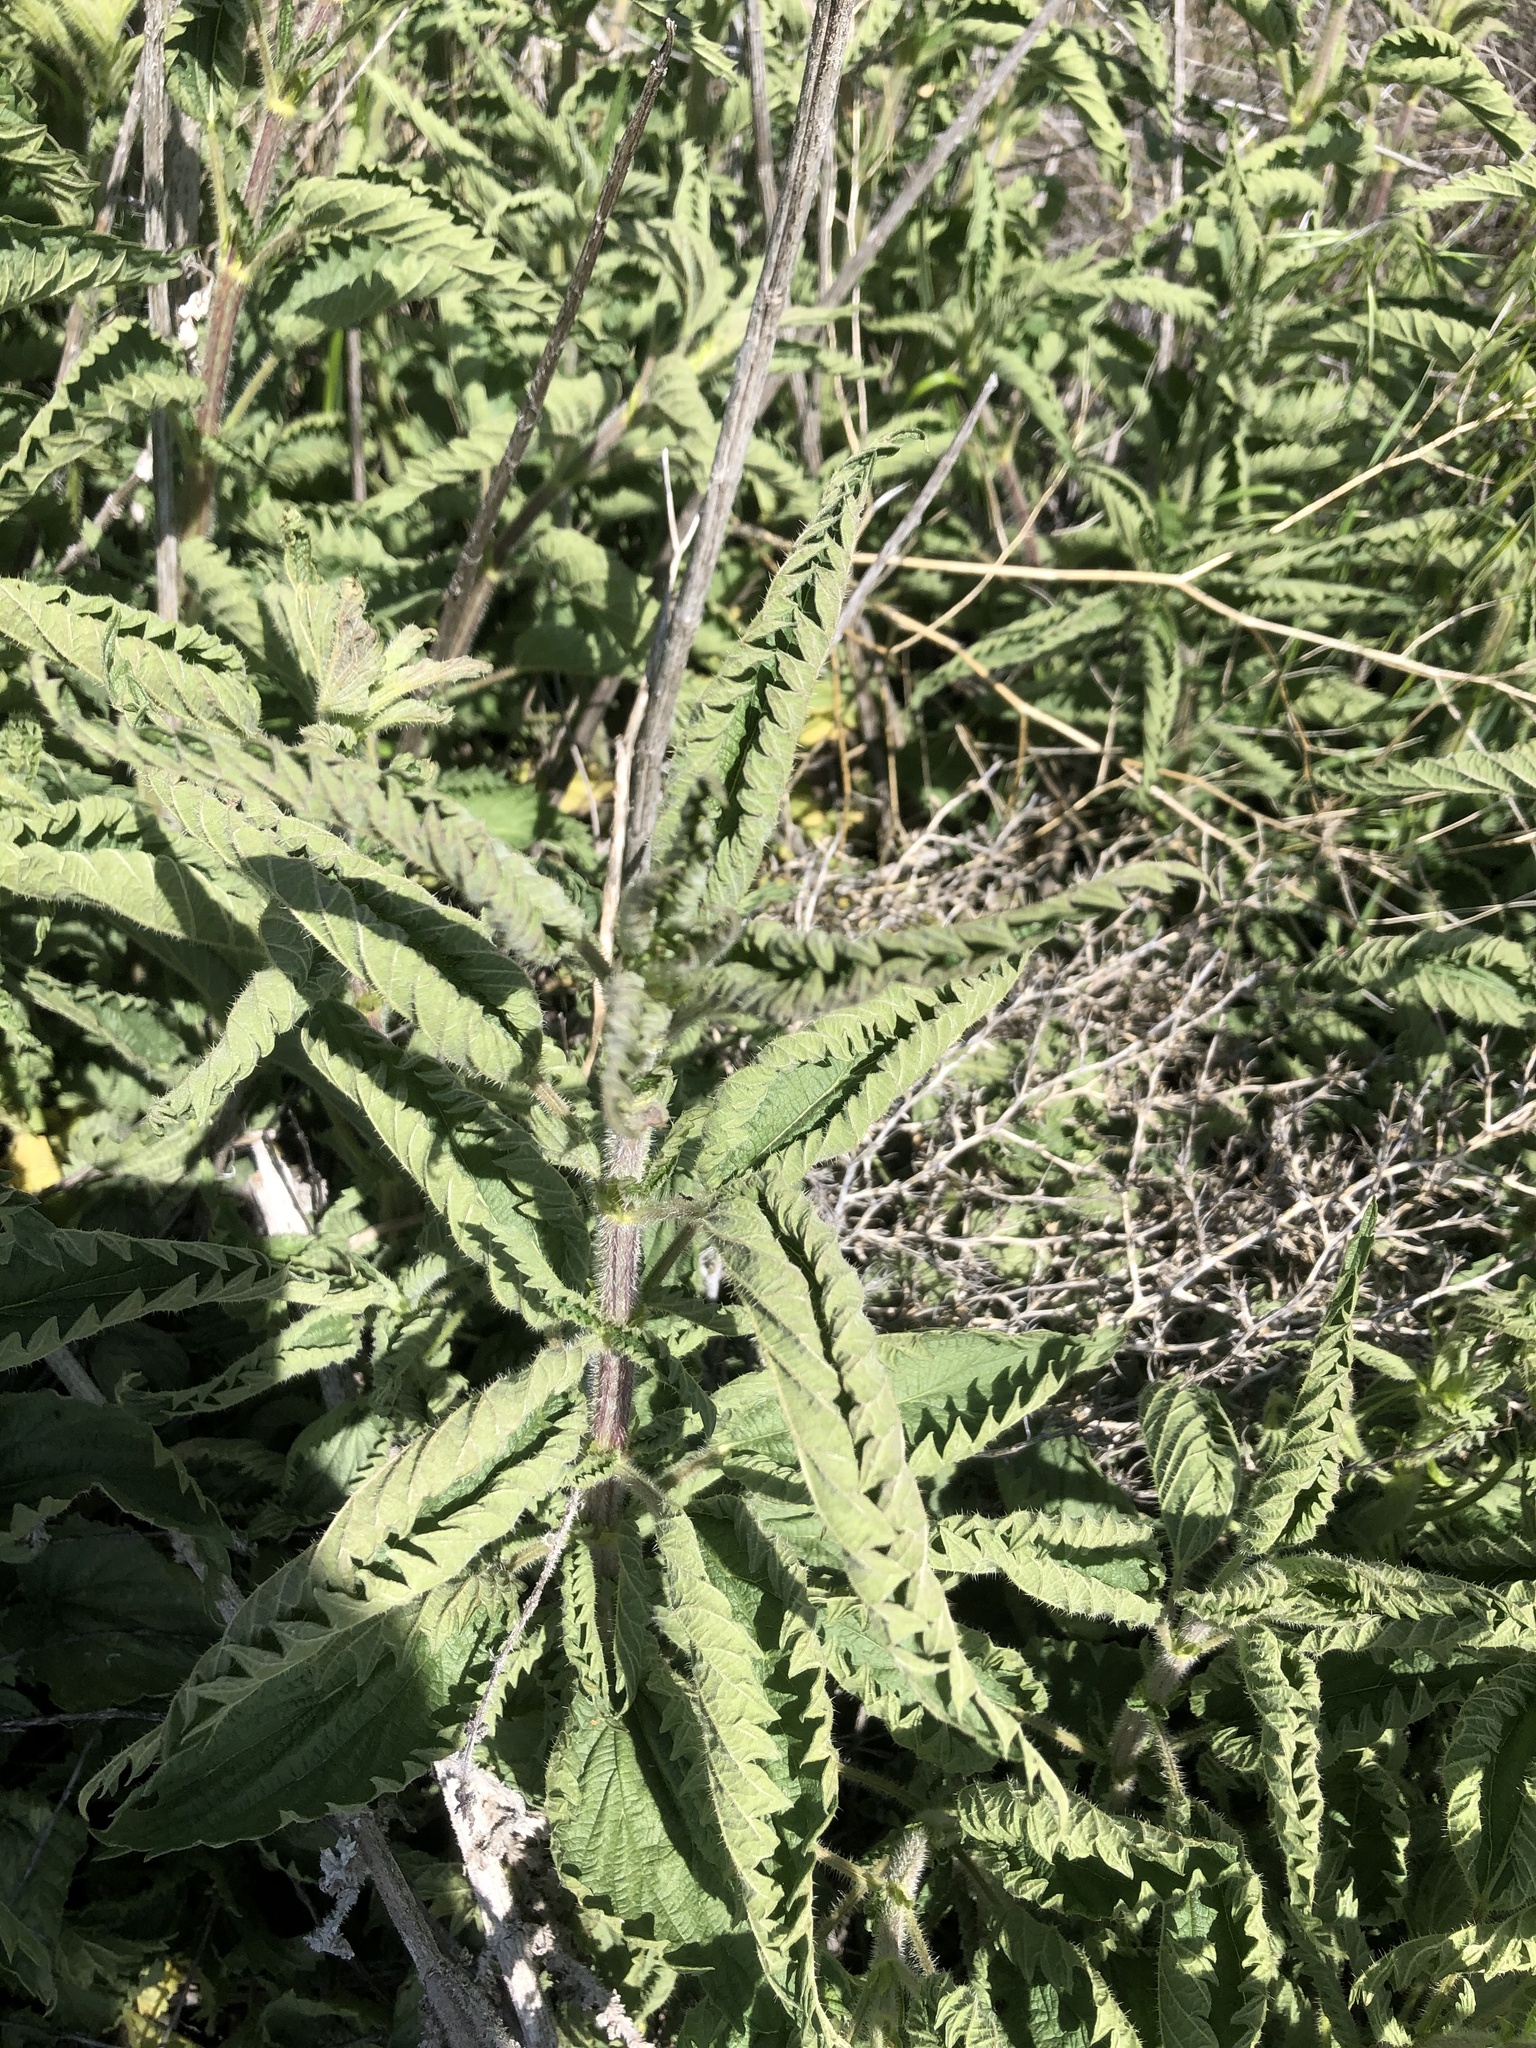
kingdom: Plantae
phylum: Tracheophyta
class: Magnoliopsida
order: Rosales
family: Urticaceae
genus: Urtica
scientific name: Urtica gracilis
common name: Slender stinging nettle
